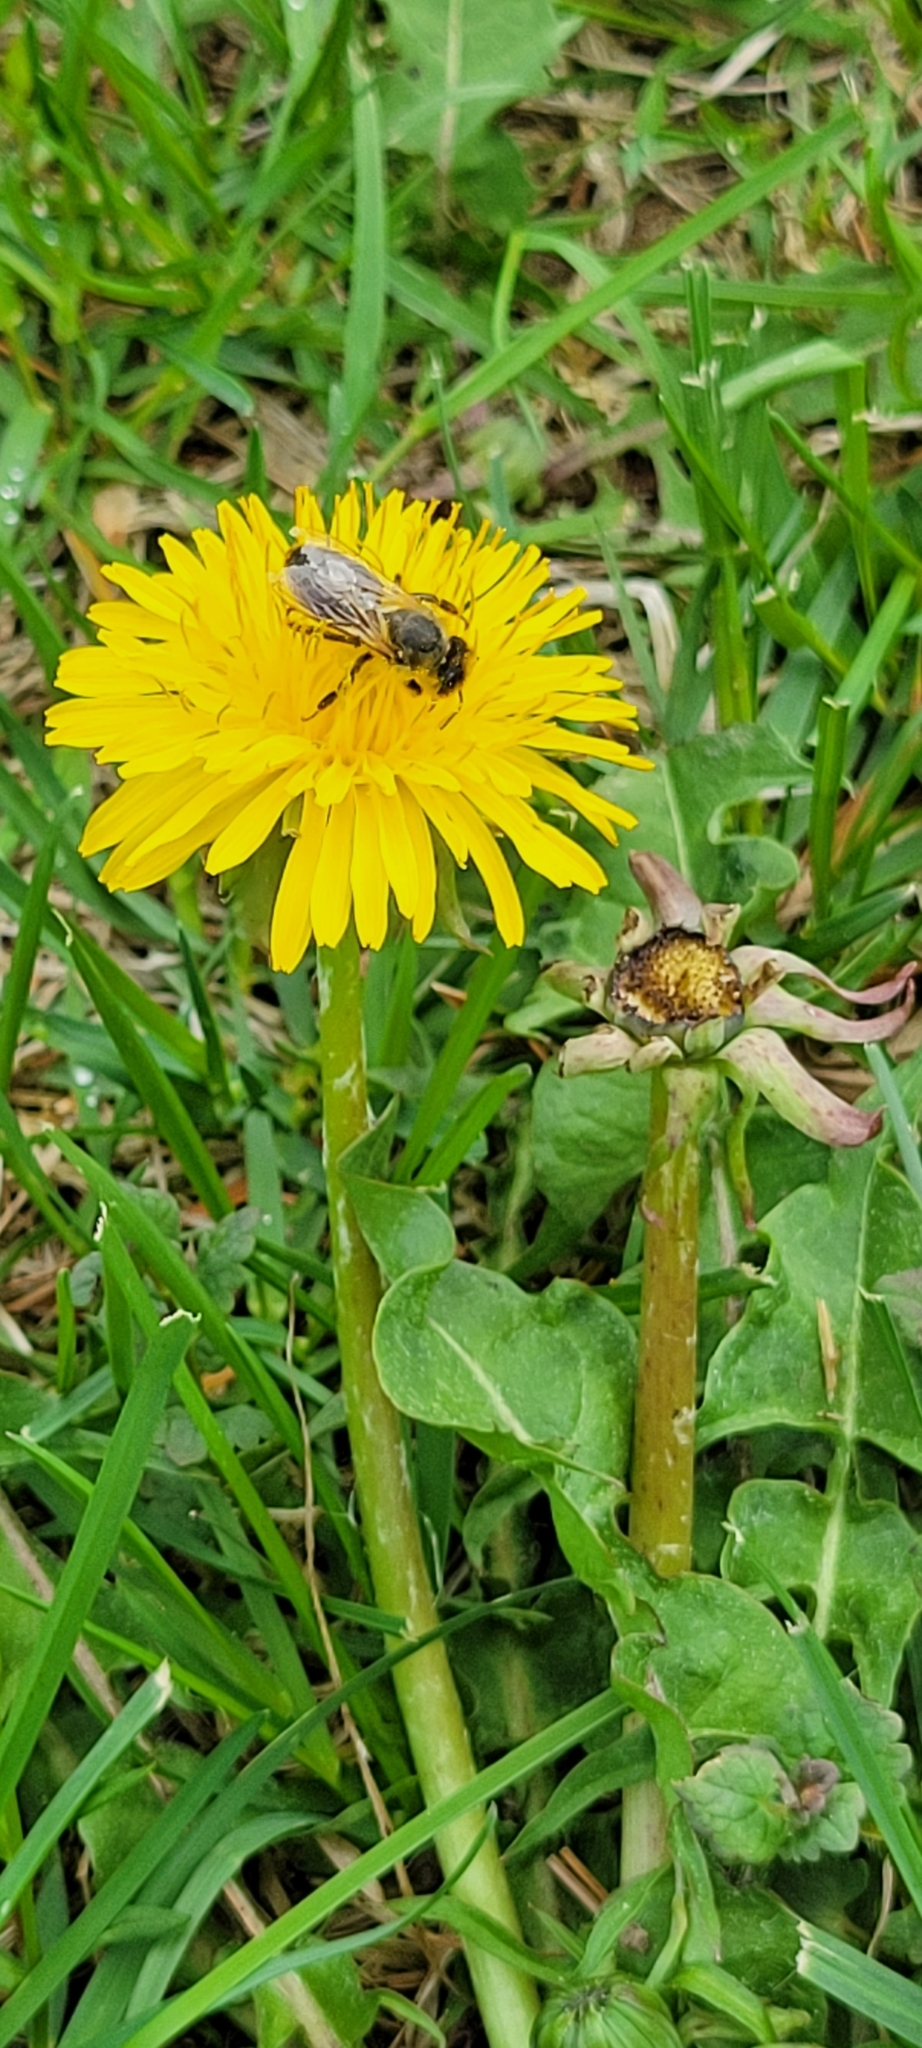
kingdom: Animalia
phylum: Arthropoda
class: Insecta
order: Hymenoptera
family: Apidae
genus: Apis
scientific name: Apis mellifera
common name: Honey bee
